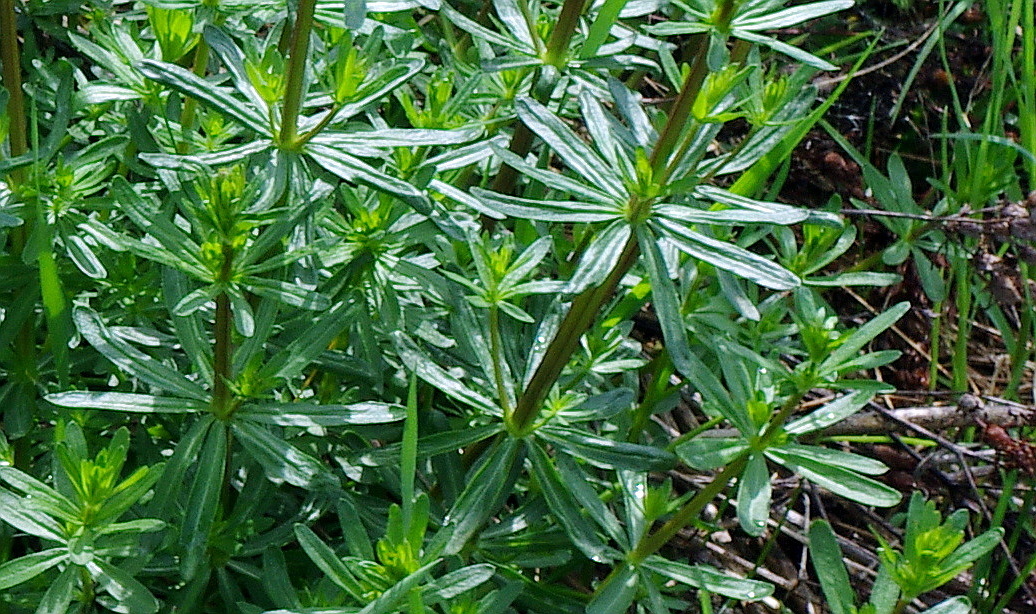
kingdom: Plantae
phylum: Tracheophyta
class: Magnoliopsida
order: Gentianales
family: Rubiaceae
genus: Galium
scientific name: Galium mollugo
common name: Hedge bedstraw
